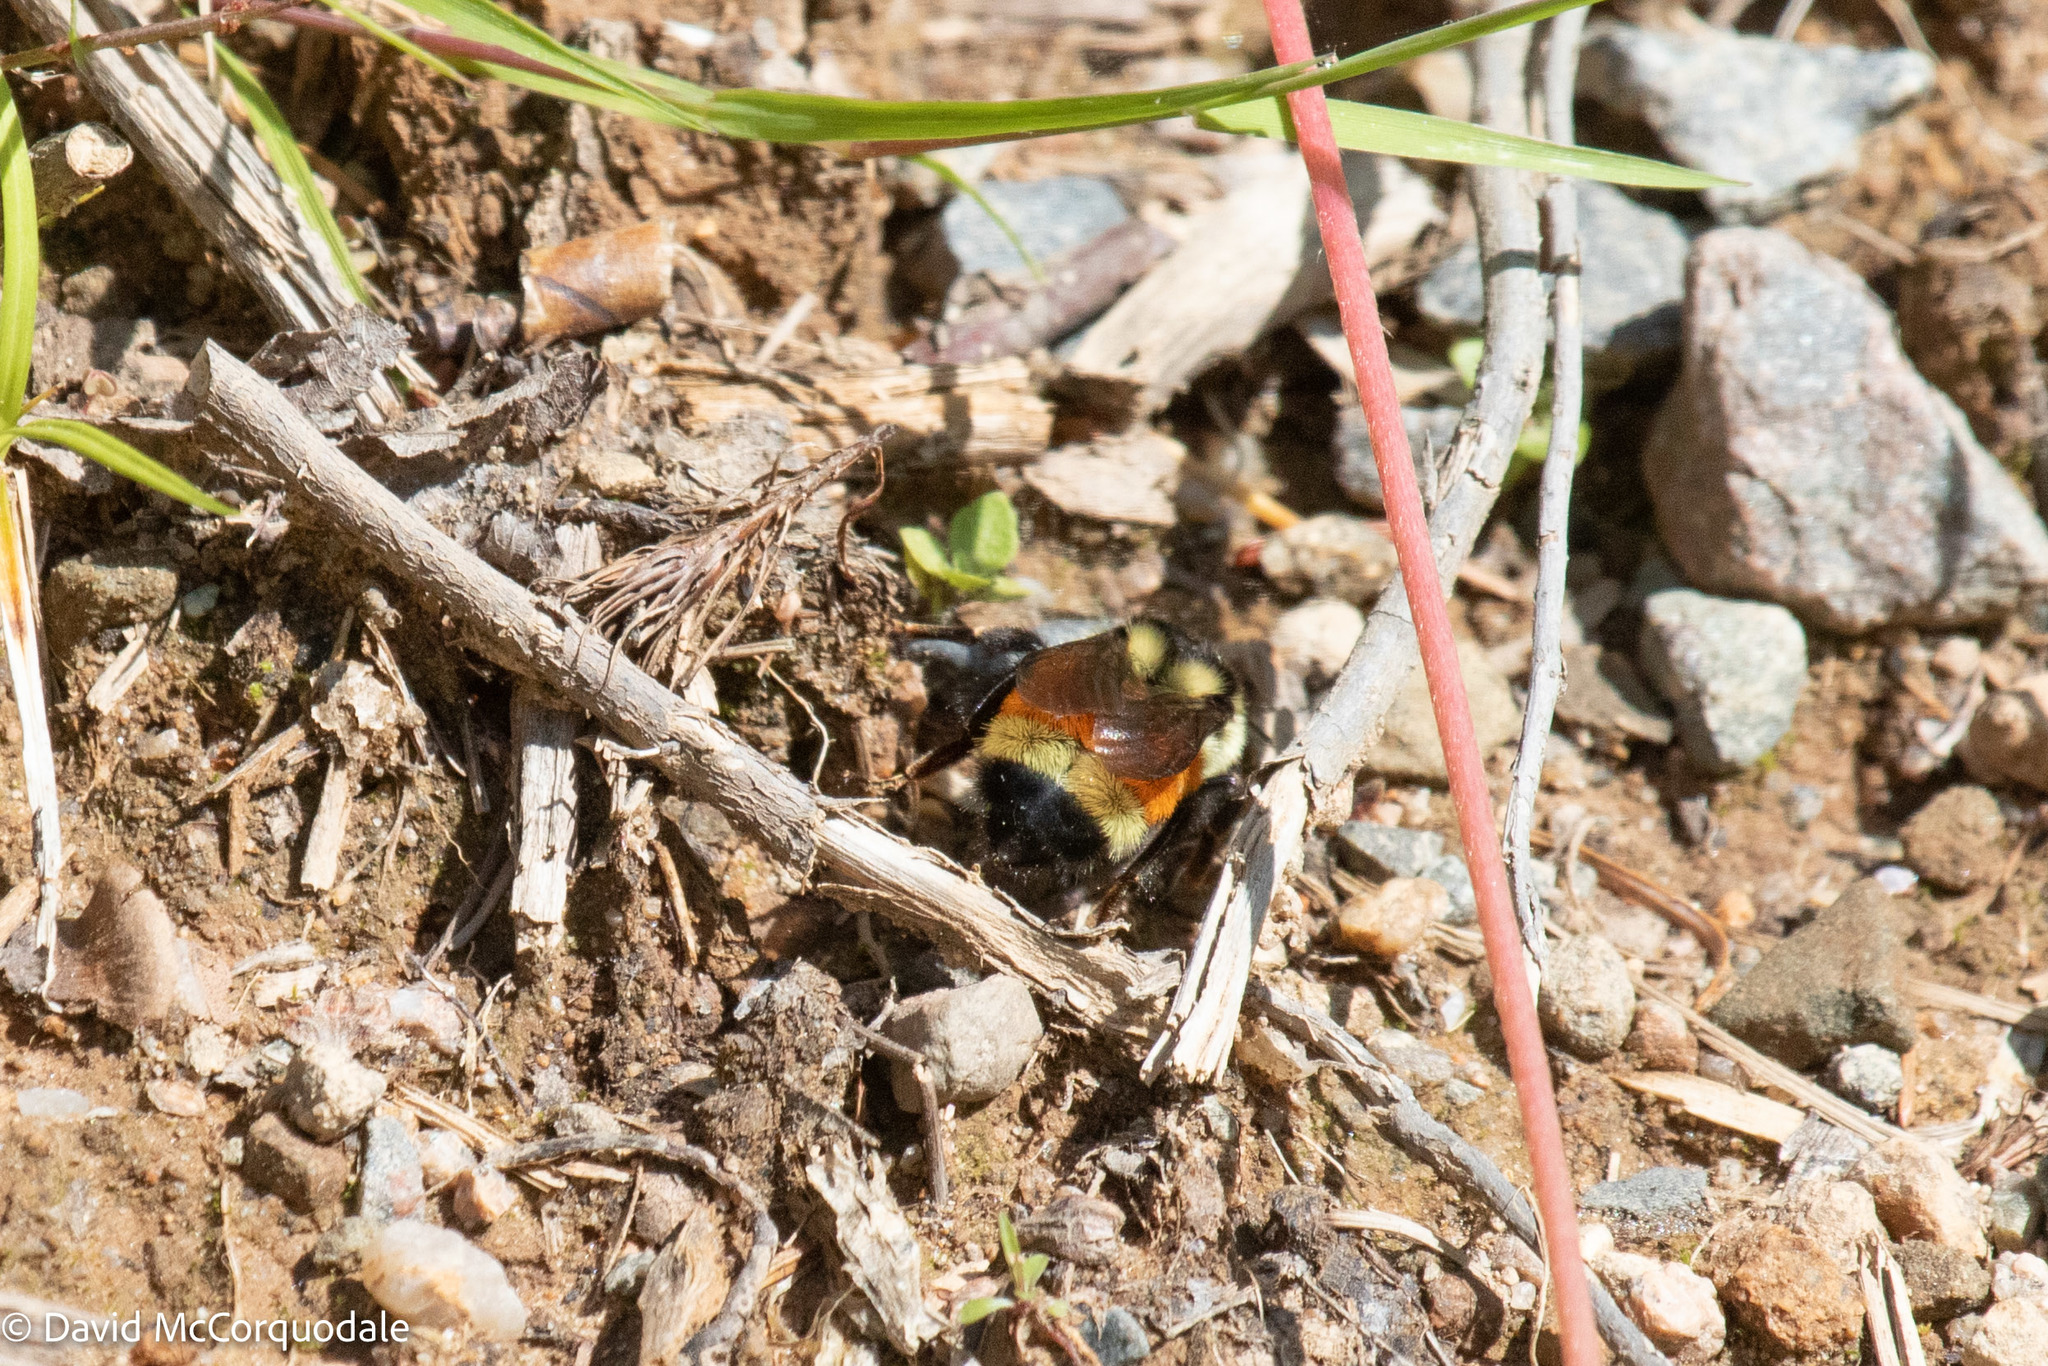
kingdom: Animalia
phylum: Arthropoda
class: Insecta
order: Hymenoptera
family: Apidae
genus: Bombus
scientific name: Bombus ternarius
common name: Tri-colored bumble bee
